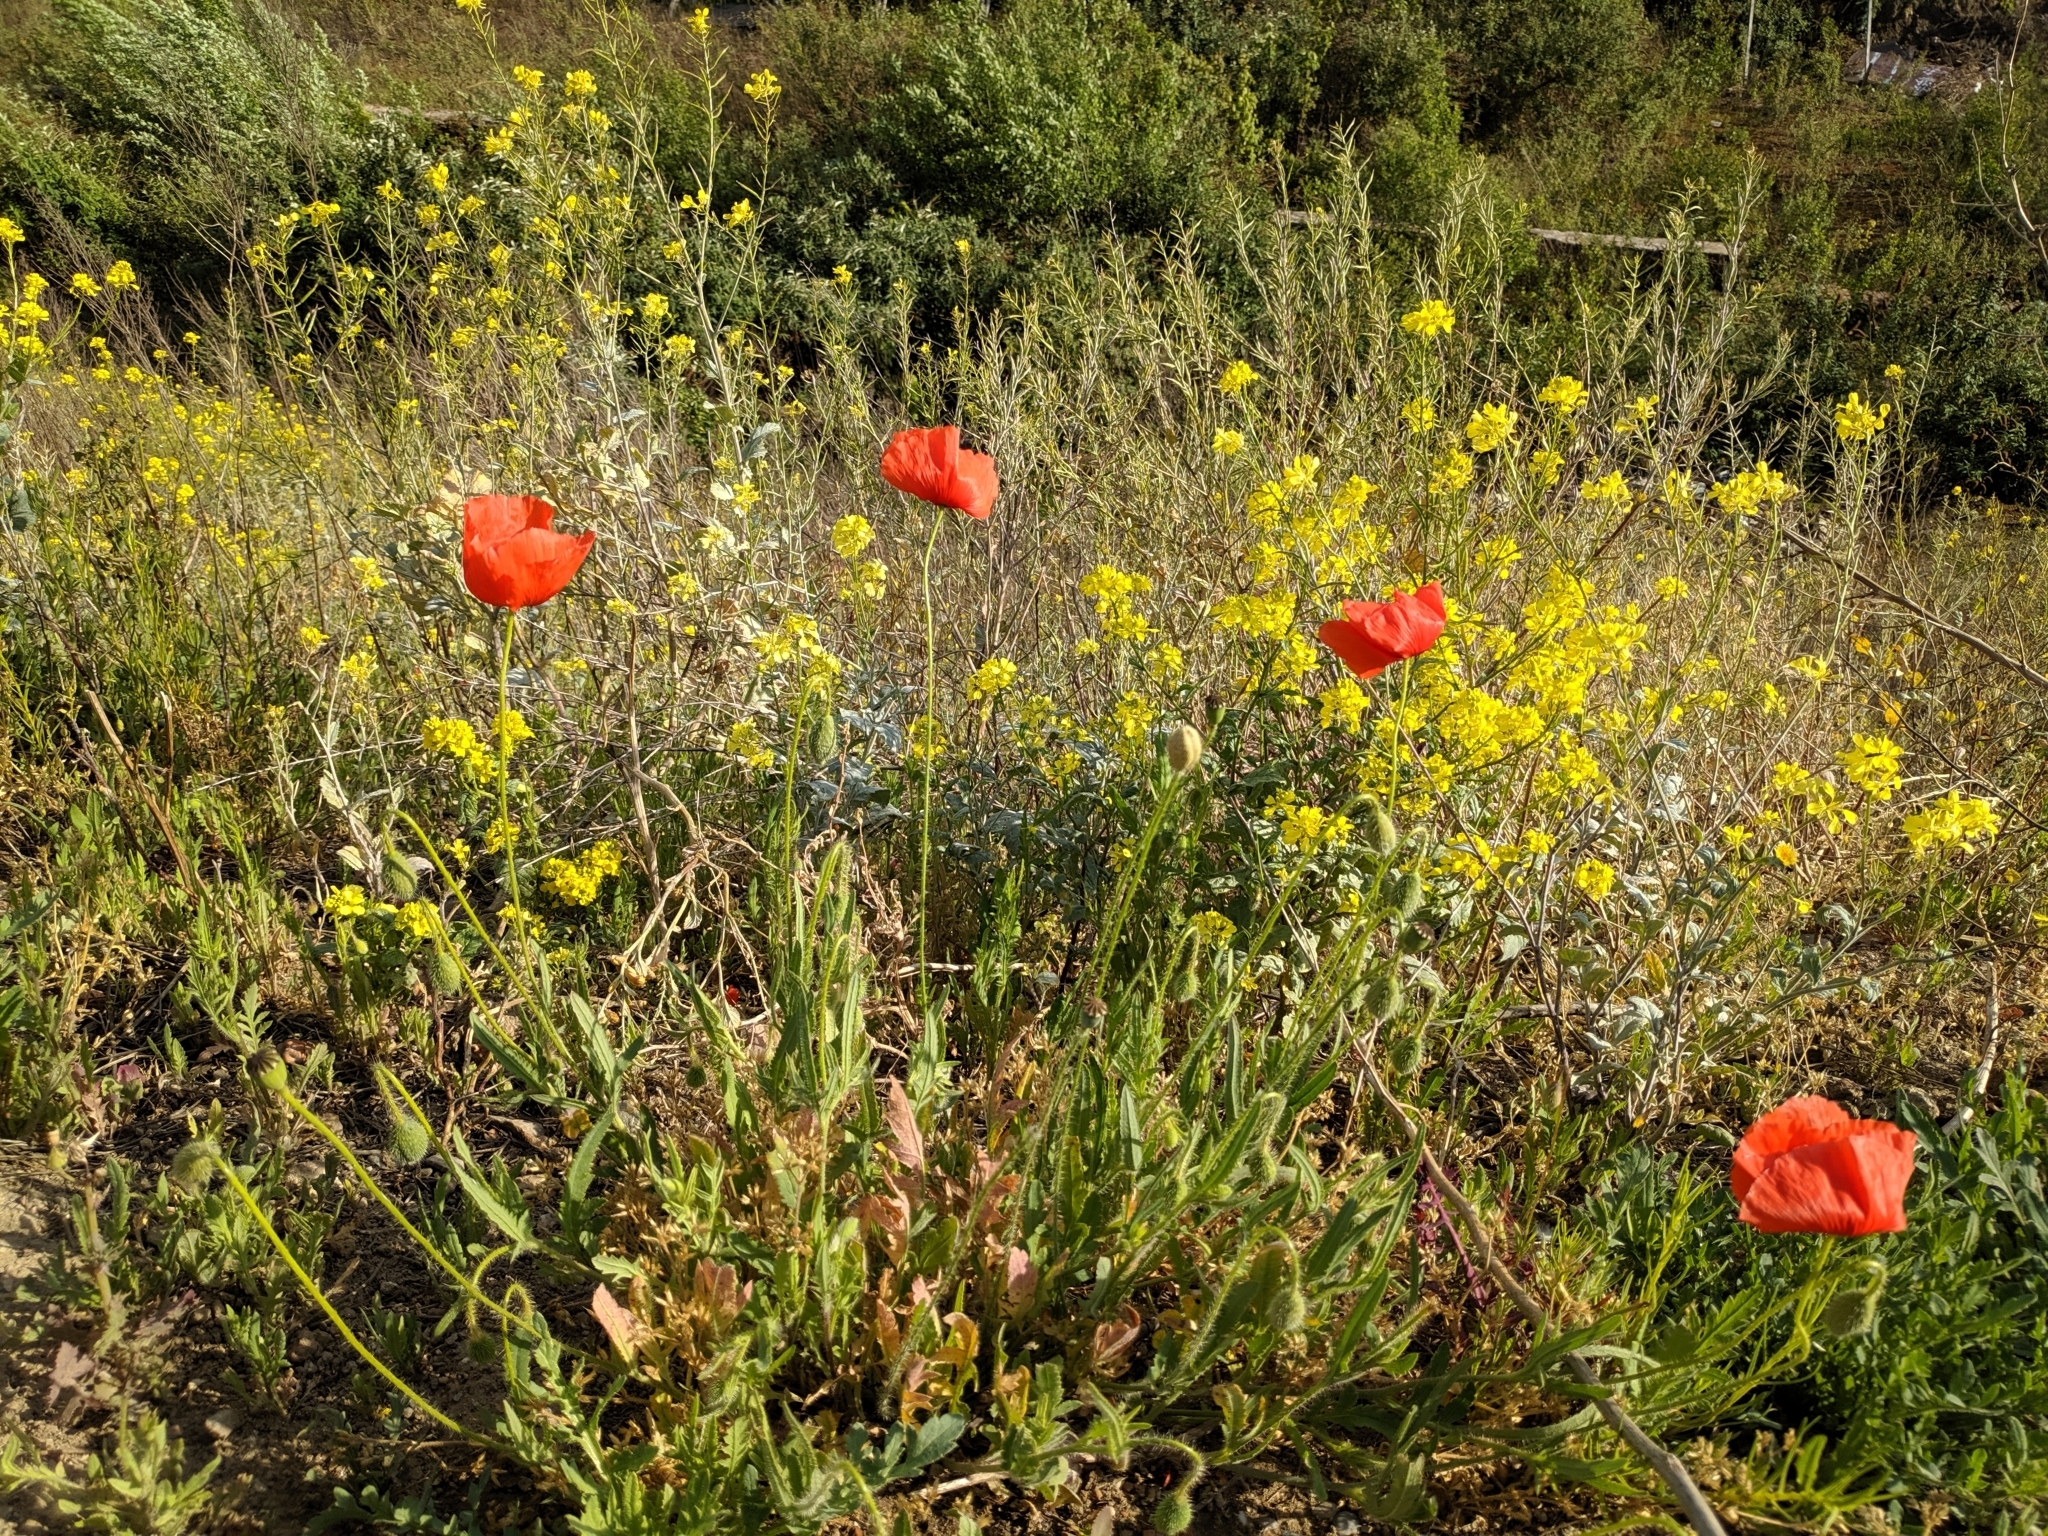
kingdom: Plantae
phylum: Tracheophyta
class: Magnoliopsida
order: Ranunculales
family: Papaveraceae
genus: Papaver
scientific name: Papaver rhoeas
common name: Corn poppy
